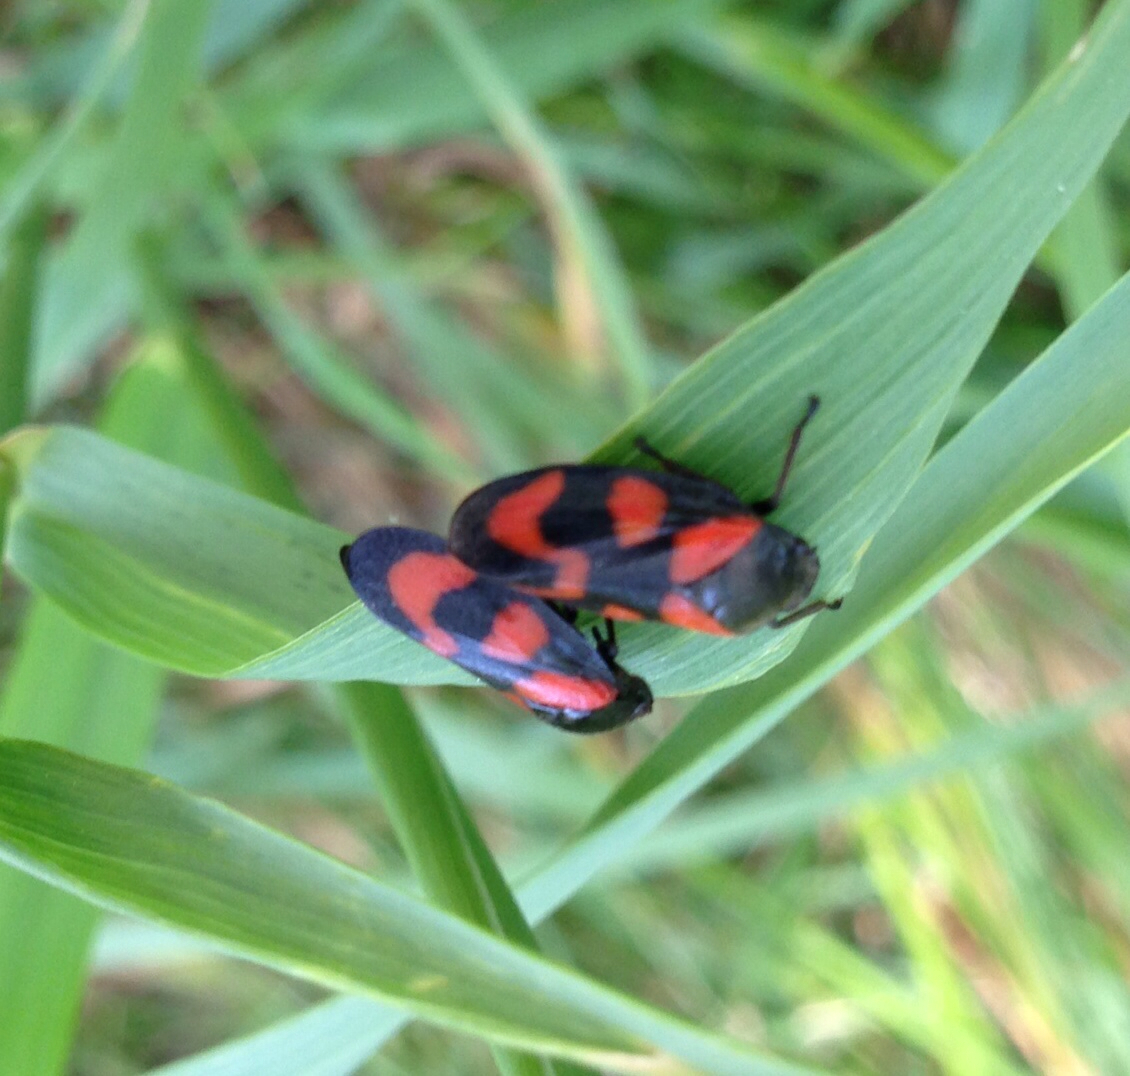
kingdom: Animalia
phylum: Arthropoda
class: Insecta
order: Hemiptera
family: Cercopidae
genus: Cercopis
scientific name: Cercopis vulnerata
